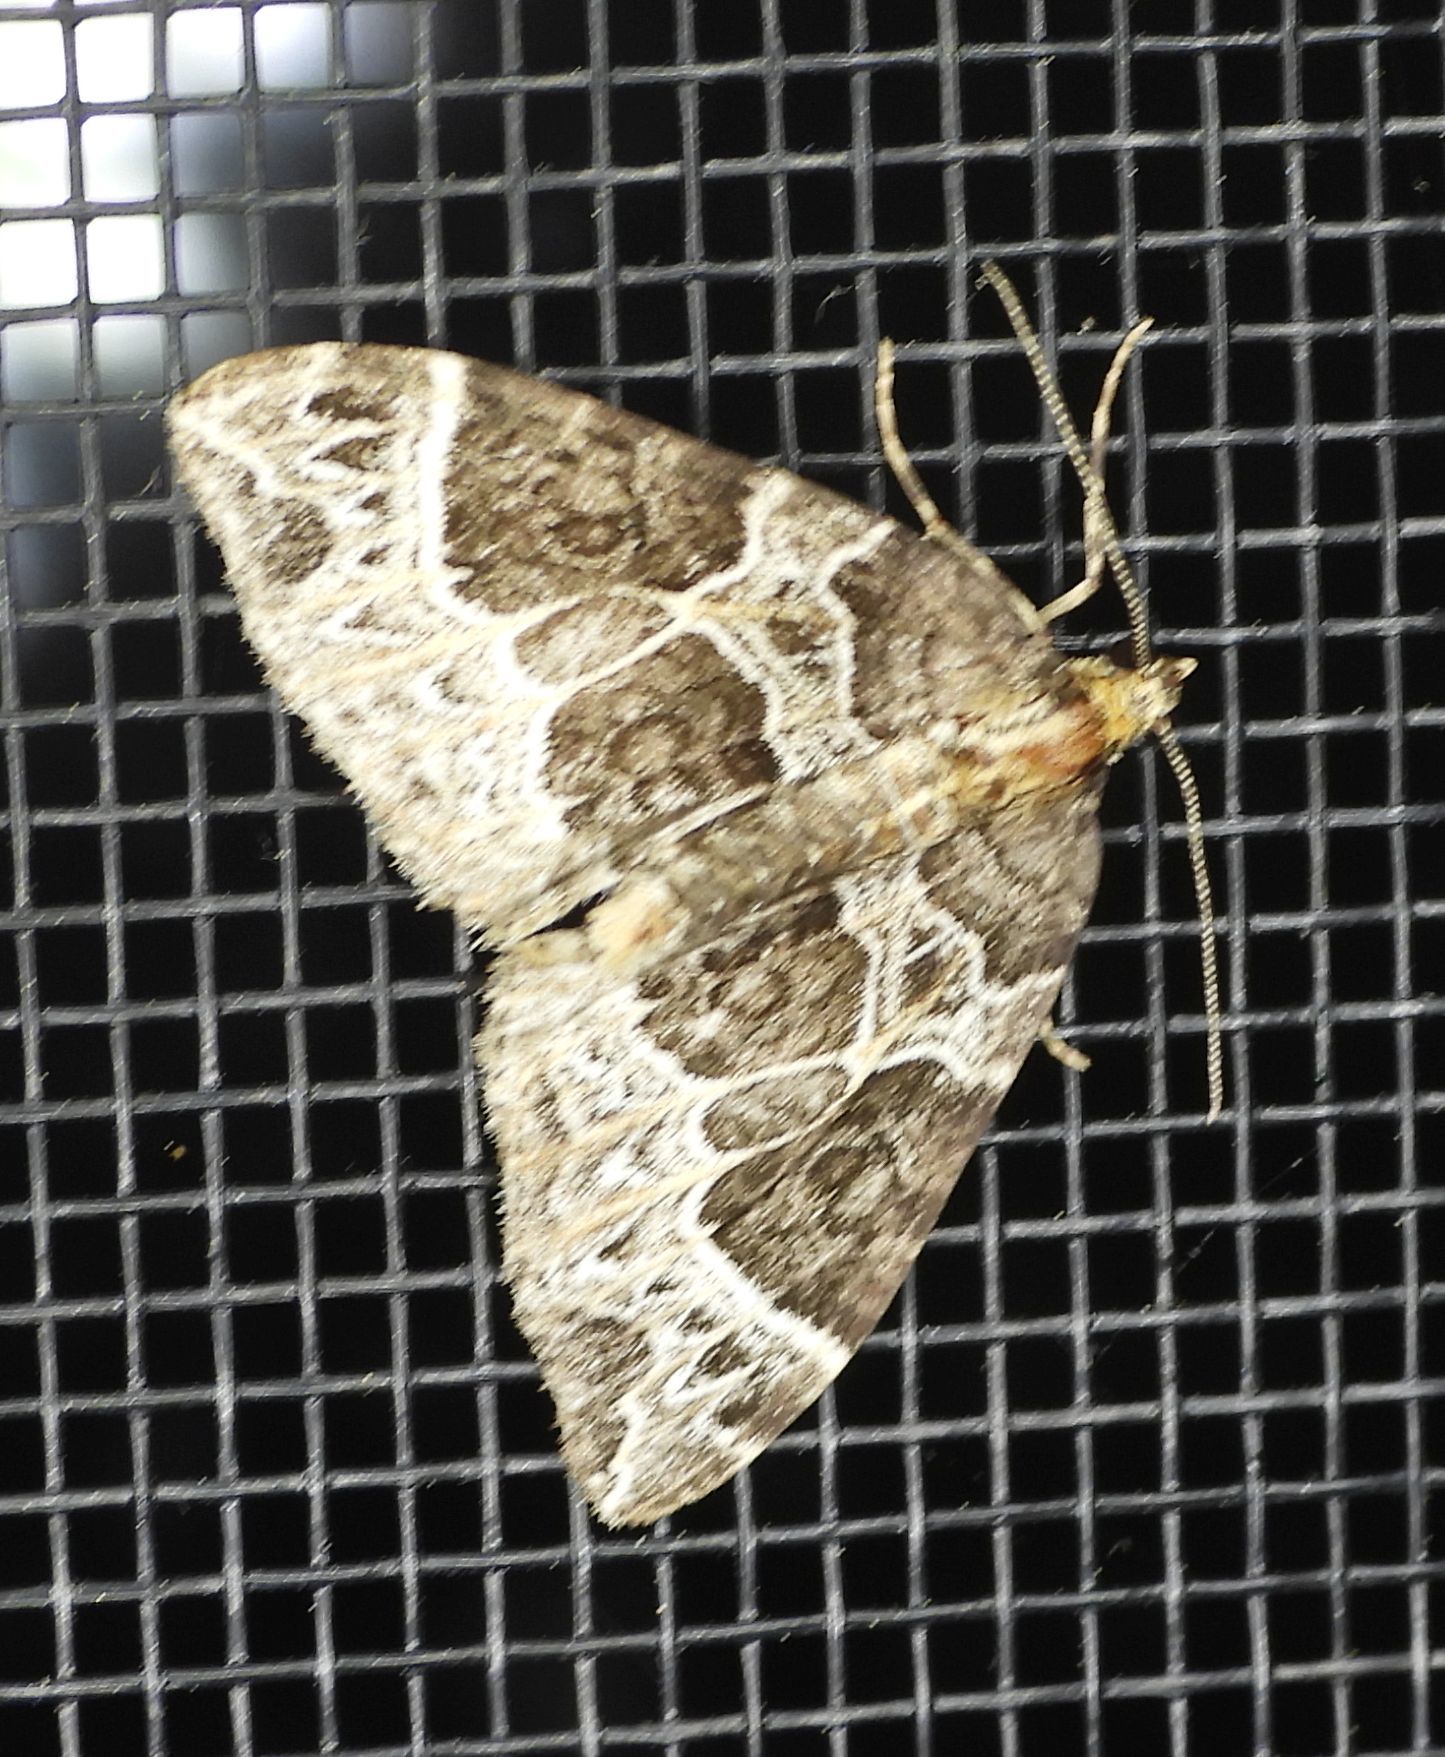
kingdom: Animalia
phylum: Arthropoda
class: Insecta
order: Lepidoptera
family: Geometridae
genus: Ecliptopera
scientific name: Ecliptopera silaceata
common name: Small phoenix
